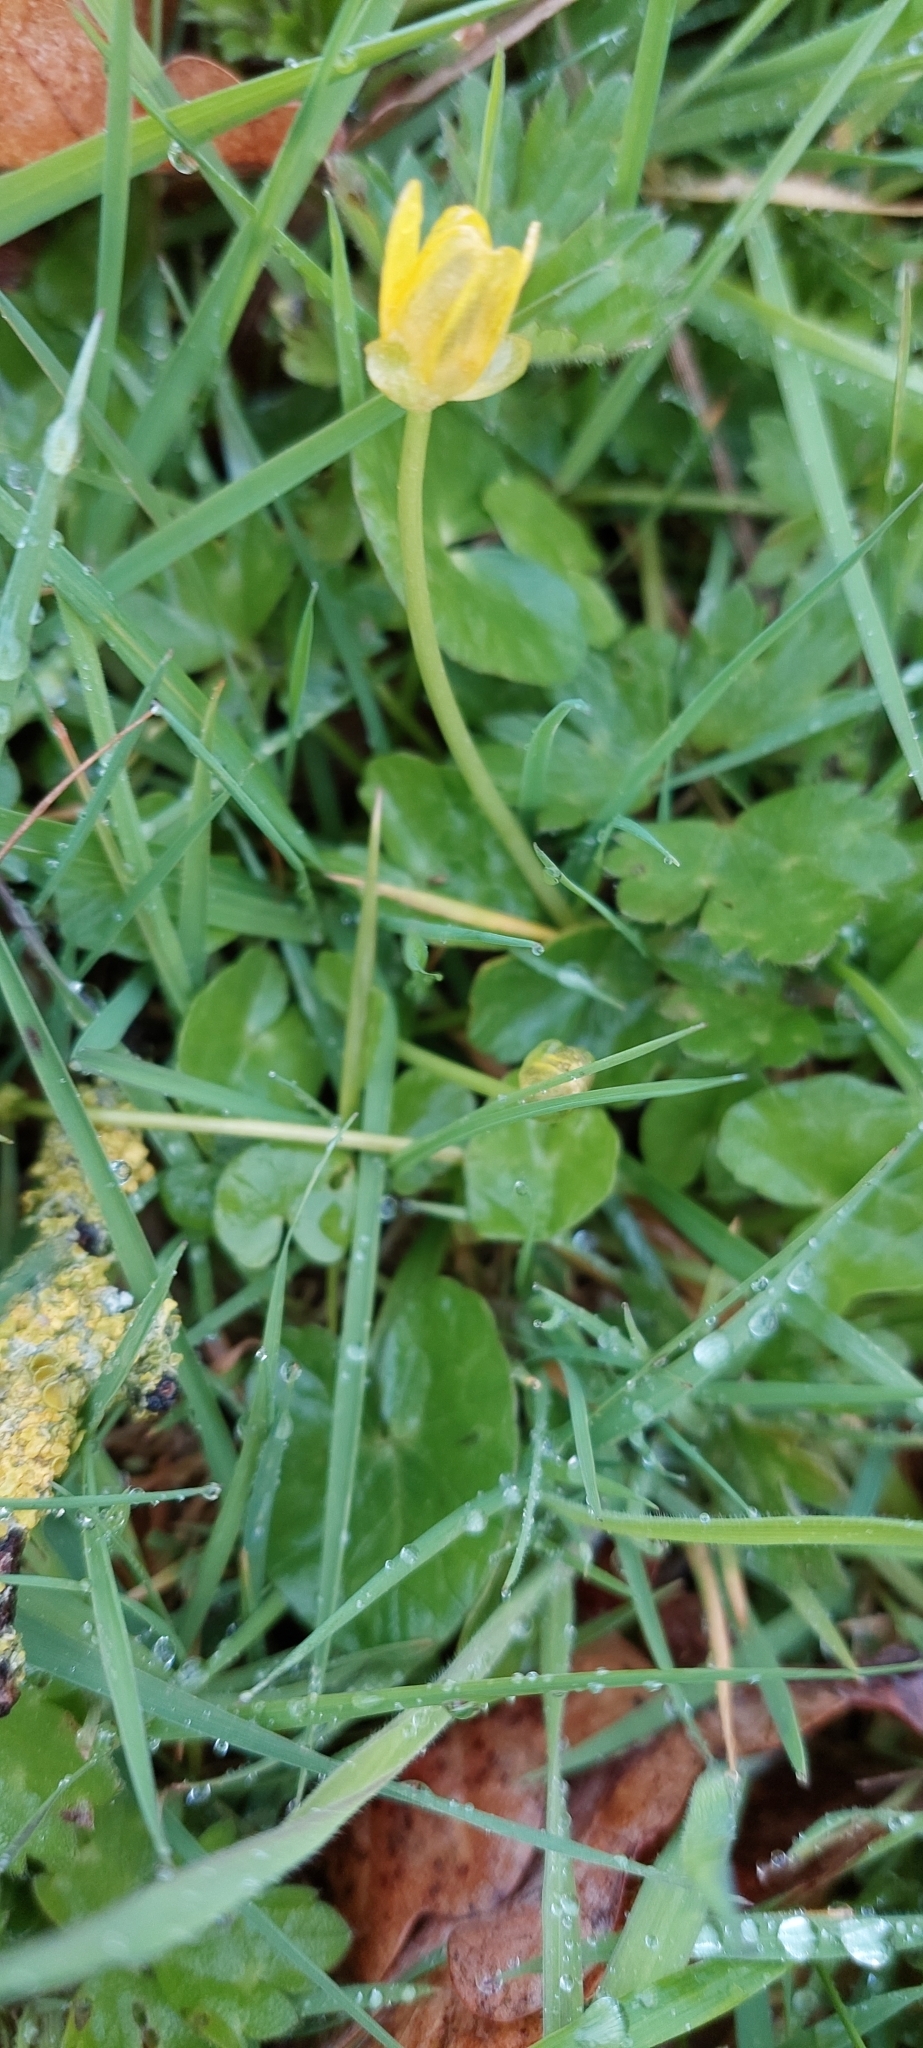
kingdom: Plantae
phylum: Tracheophyta
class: Magnoliopsida
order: Ranunculales
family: Ranunculaceae
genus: Ficaria
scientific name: Ficaria verna
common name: Lesser celandine
